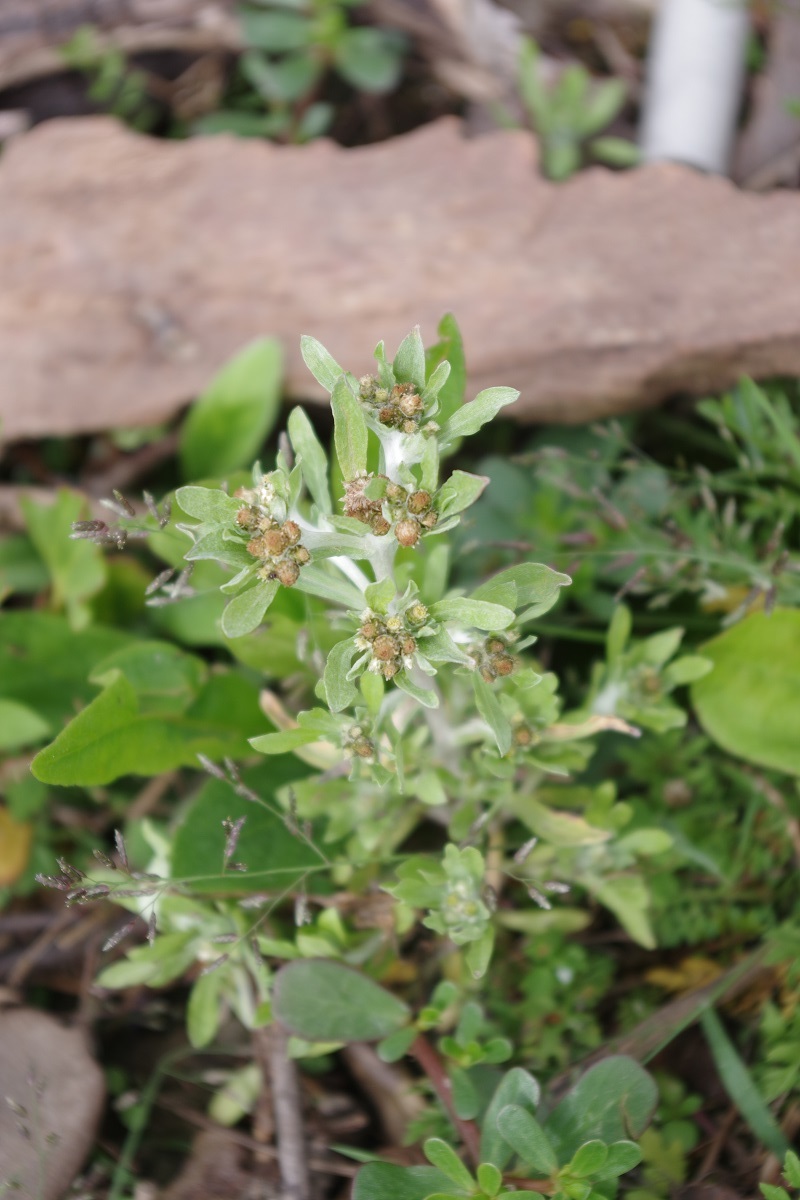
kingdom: Plantae
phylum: Tracheophyta
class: Magnoliopsida
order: Asterales
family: Asteraceae
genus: Gnaphalium
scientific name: Gnaphalium uliginosum
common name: Marsh cudweed
